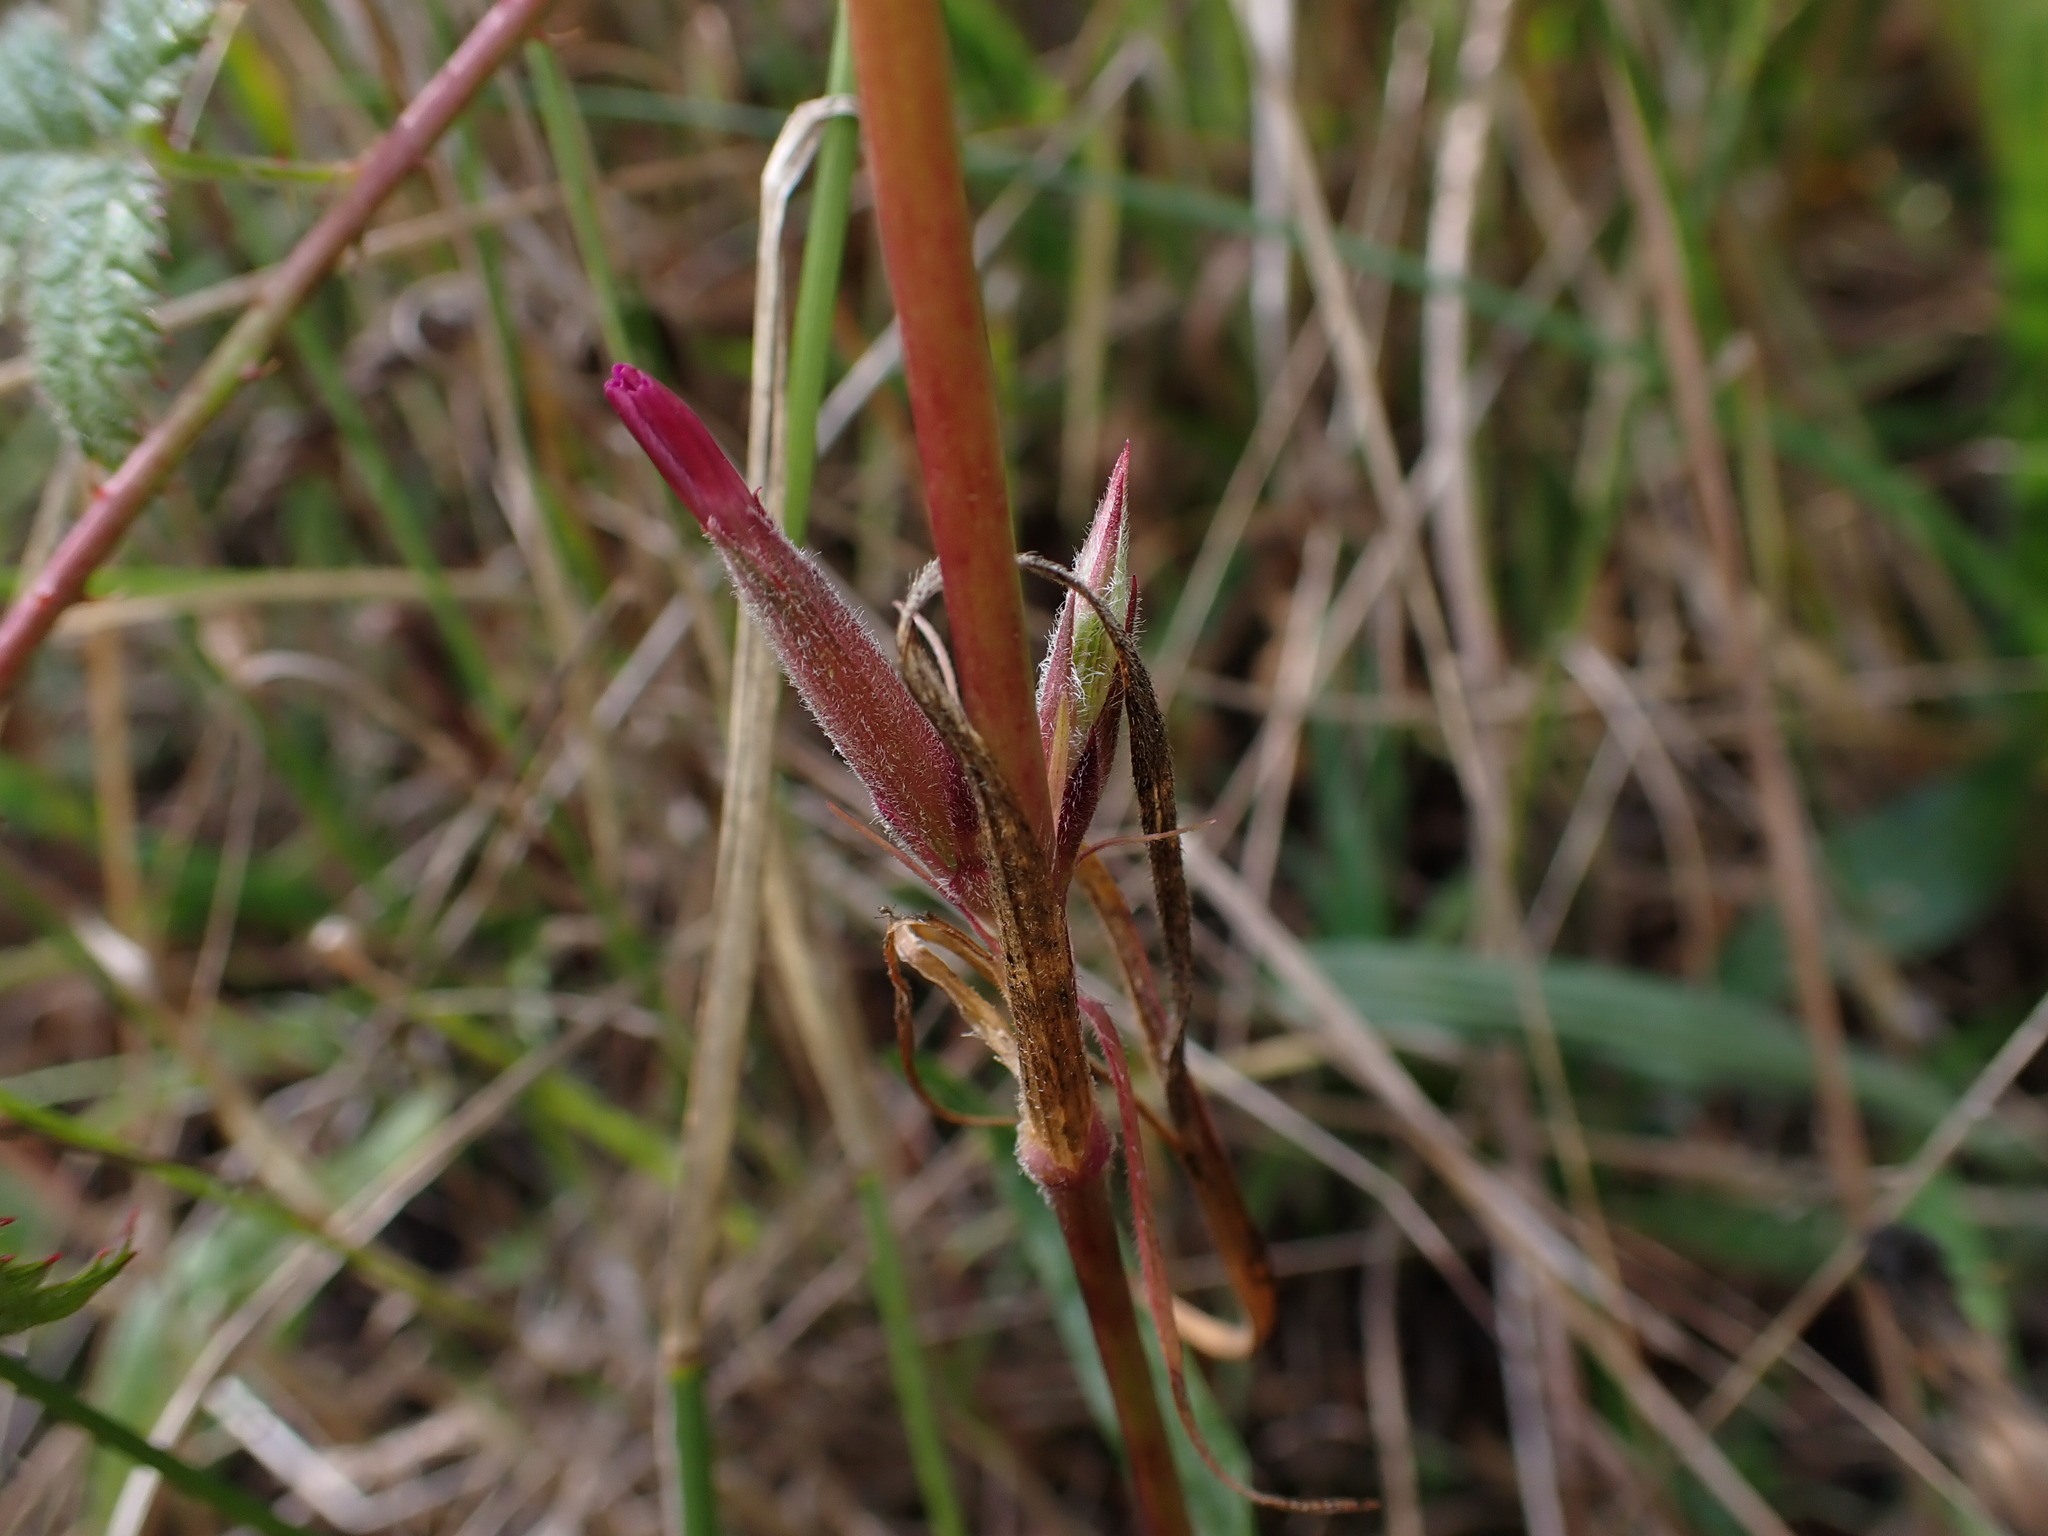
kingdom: Plantae
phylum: Tracheophyta
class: Magnoliopsida
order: Caryophyllales
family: Caryophyllaceae
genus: Dianthus
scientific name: Dianthus armeria
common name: Deptford pink
